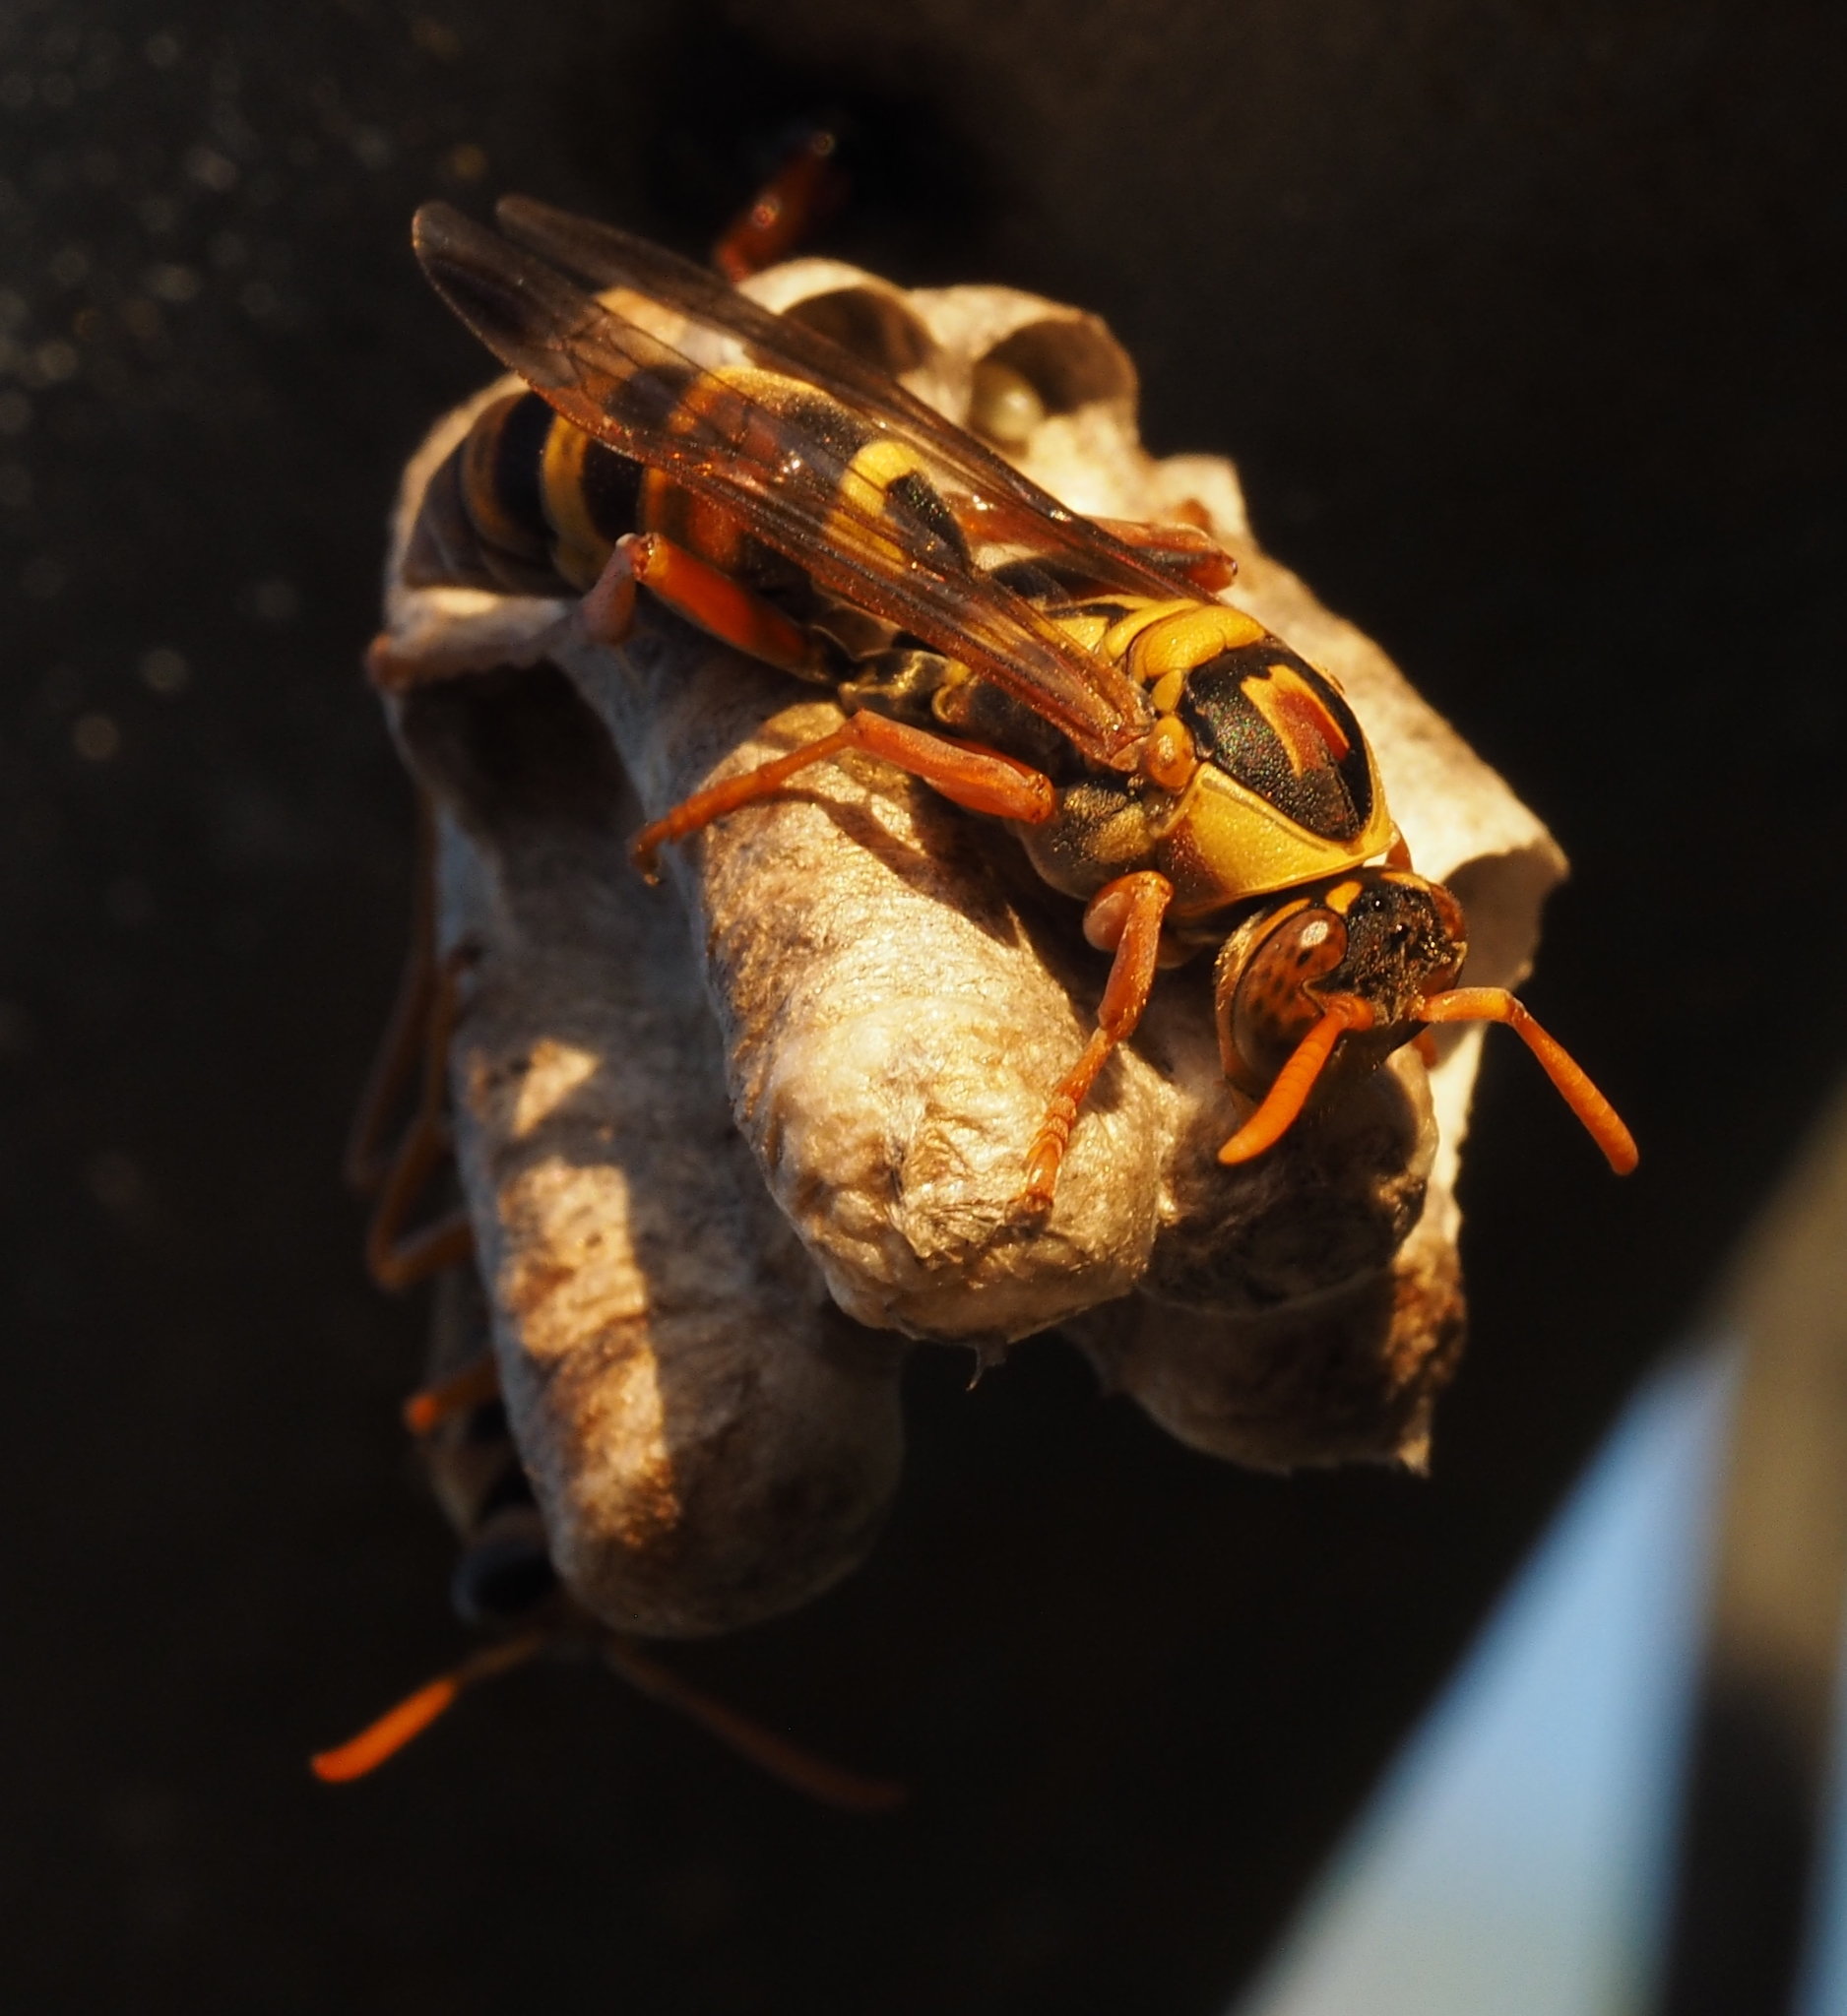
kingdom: Animalia
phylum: Arthropoda
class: Insecta
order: Hymenoptera
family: Eumenidae
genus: Polistes
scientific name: Polistes stigma
